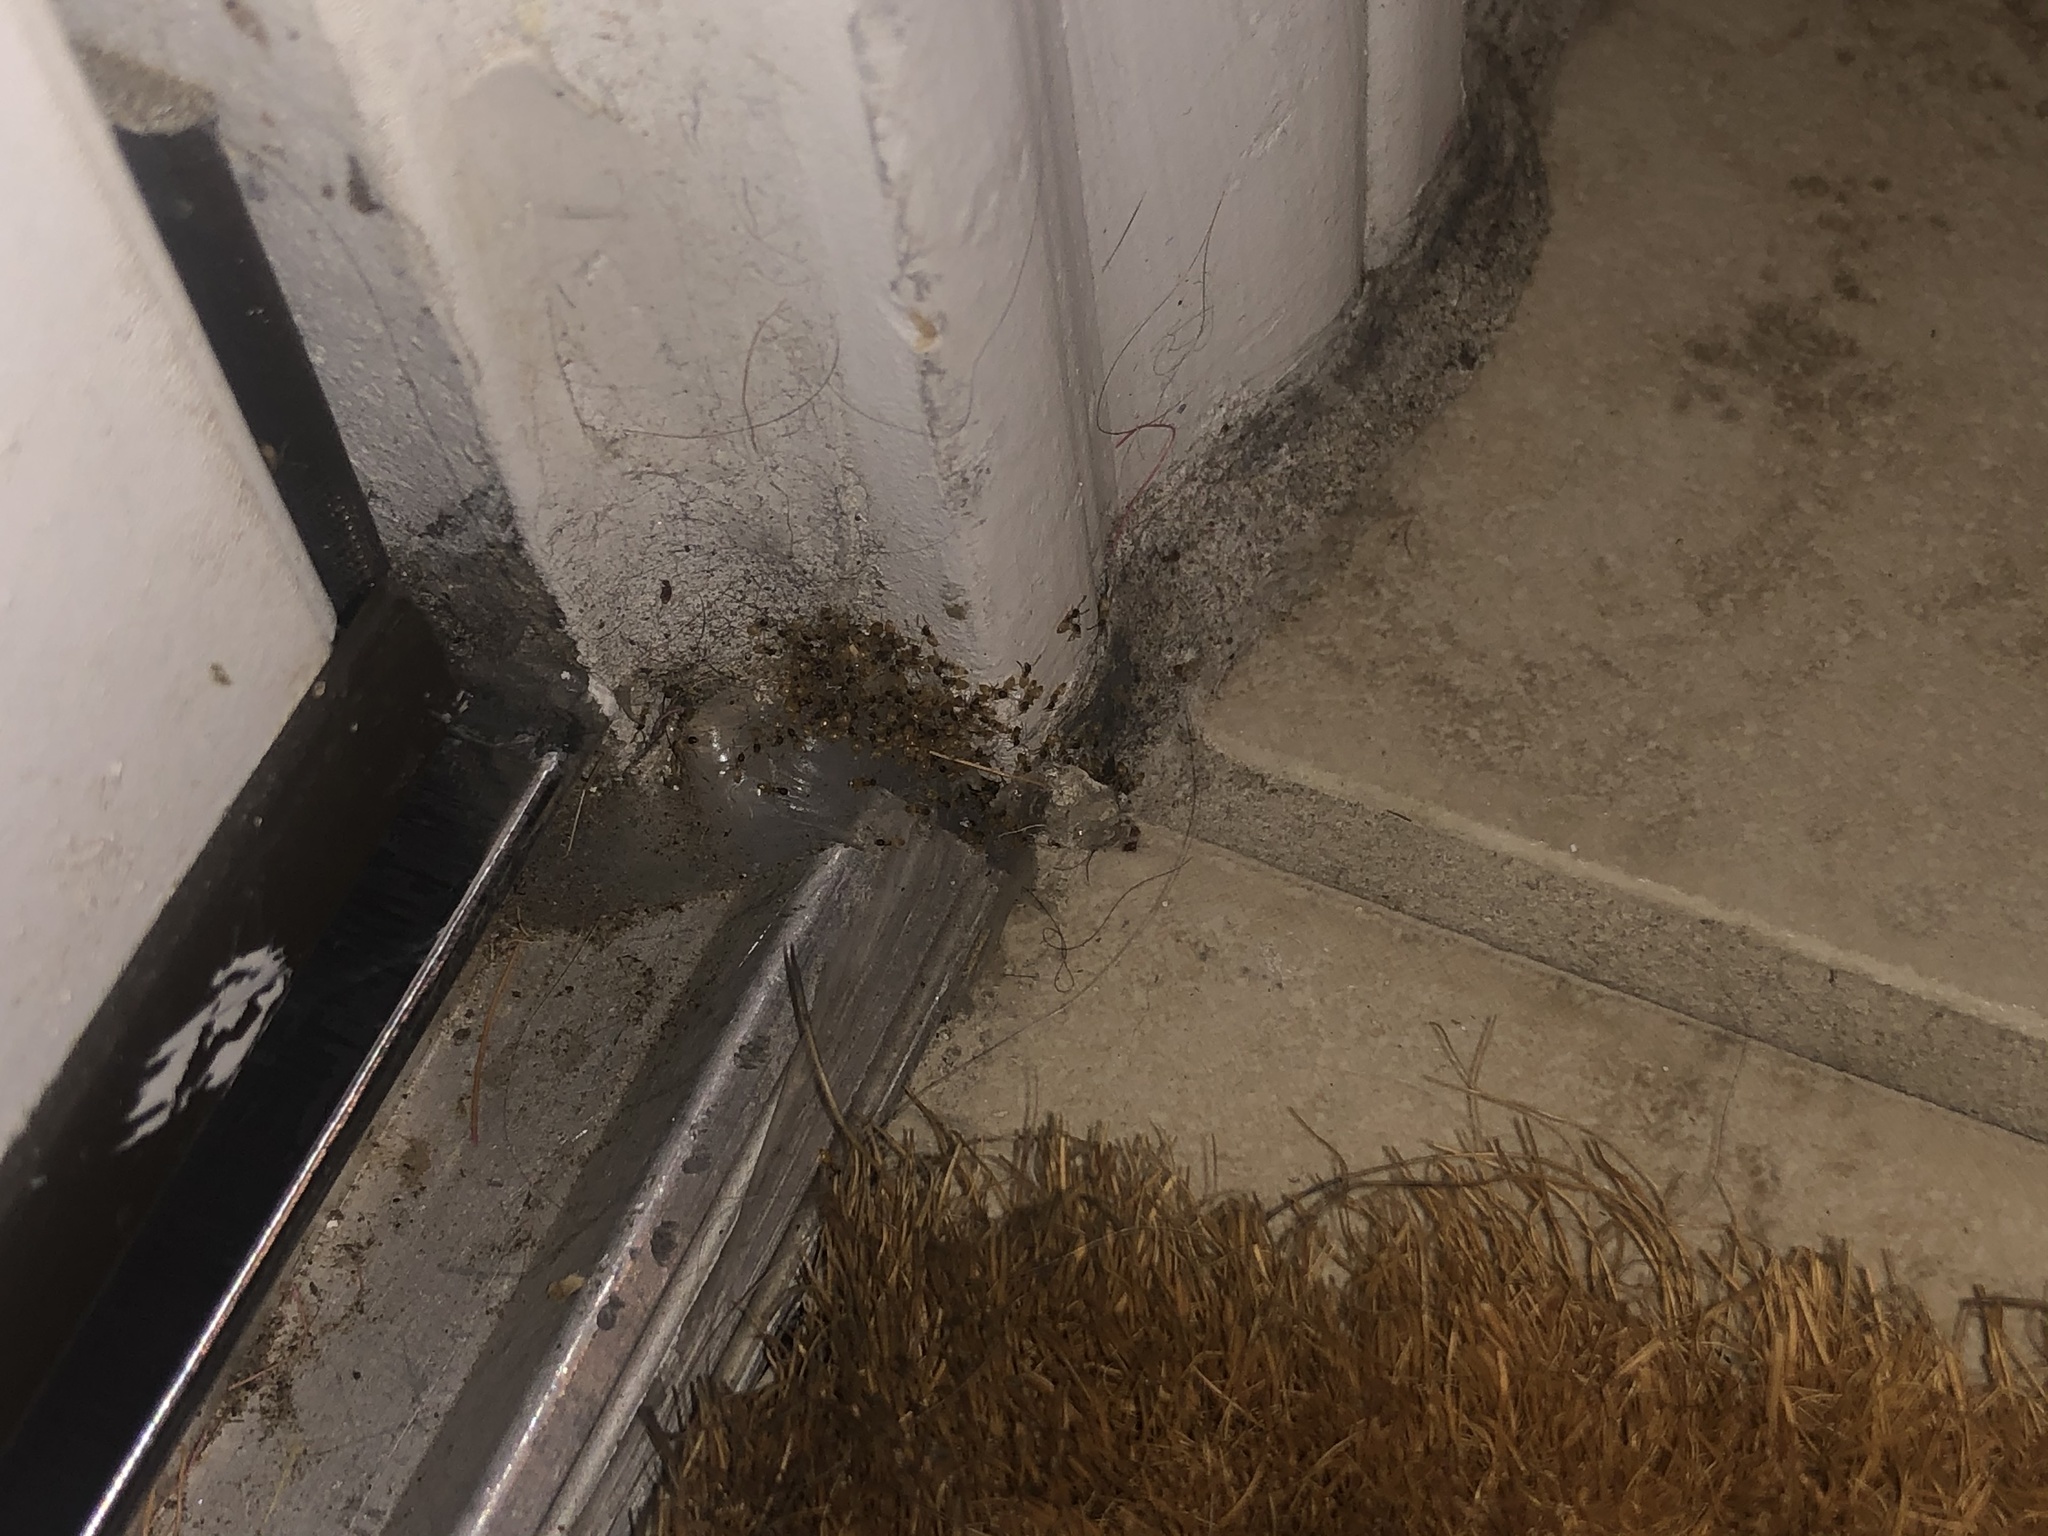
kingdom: Animalia
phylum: Arthropoda
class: Insecta
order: Hymenoptera
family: Formicidae
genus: Tapinoma
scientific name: Tapinoma melanocephalum
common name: Ghost ant
